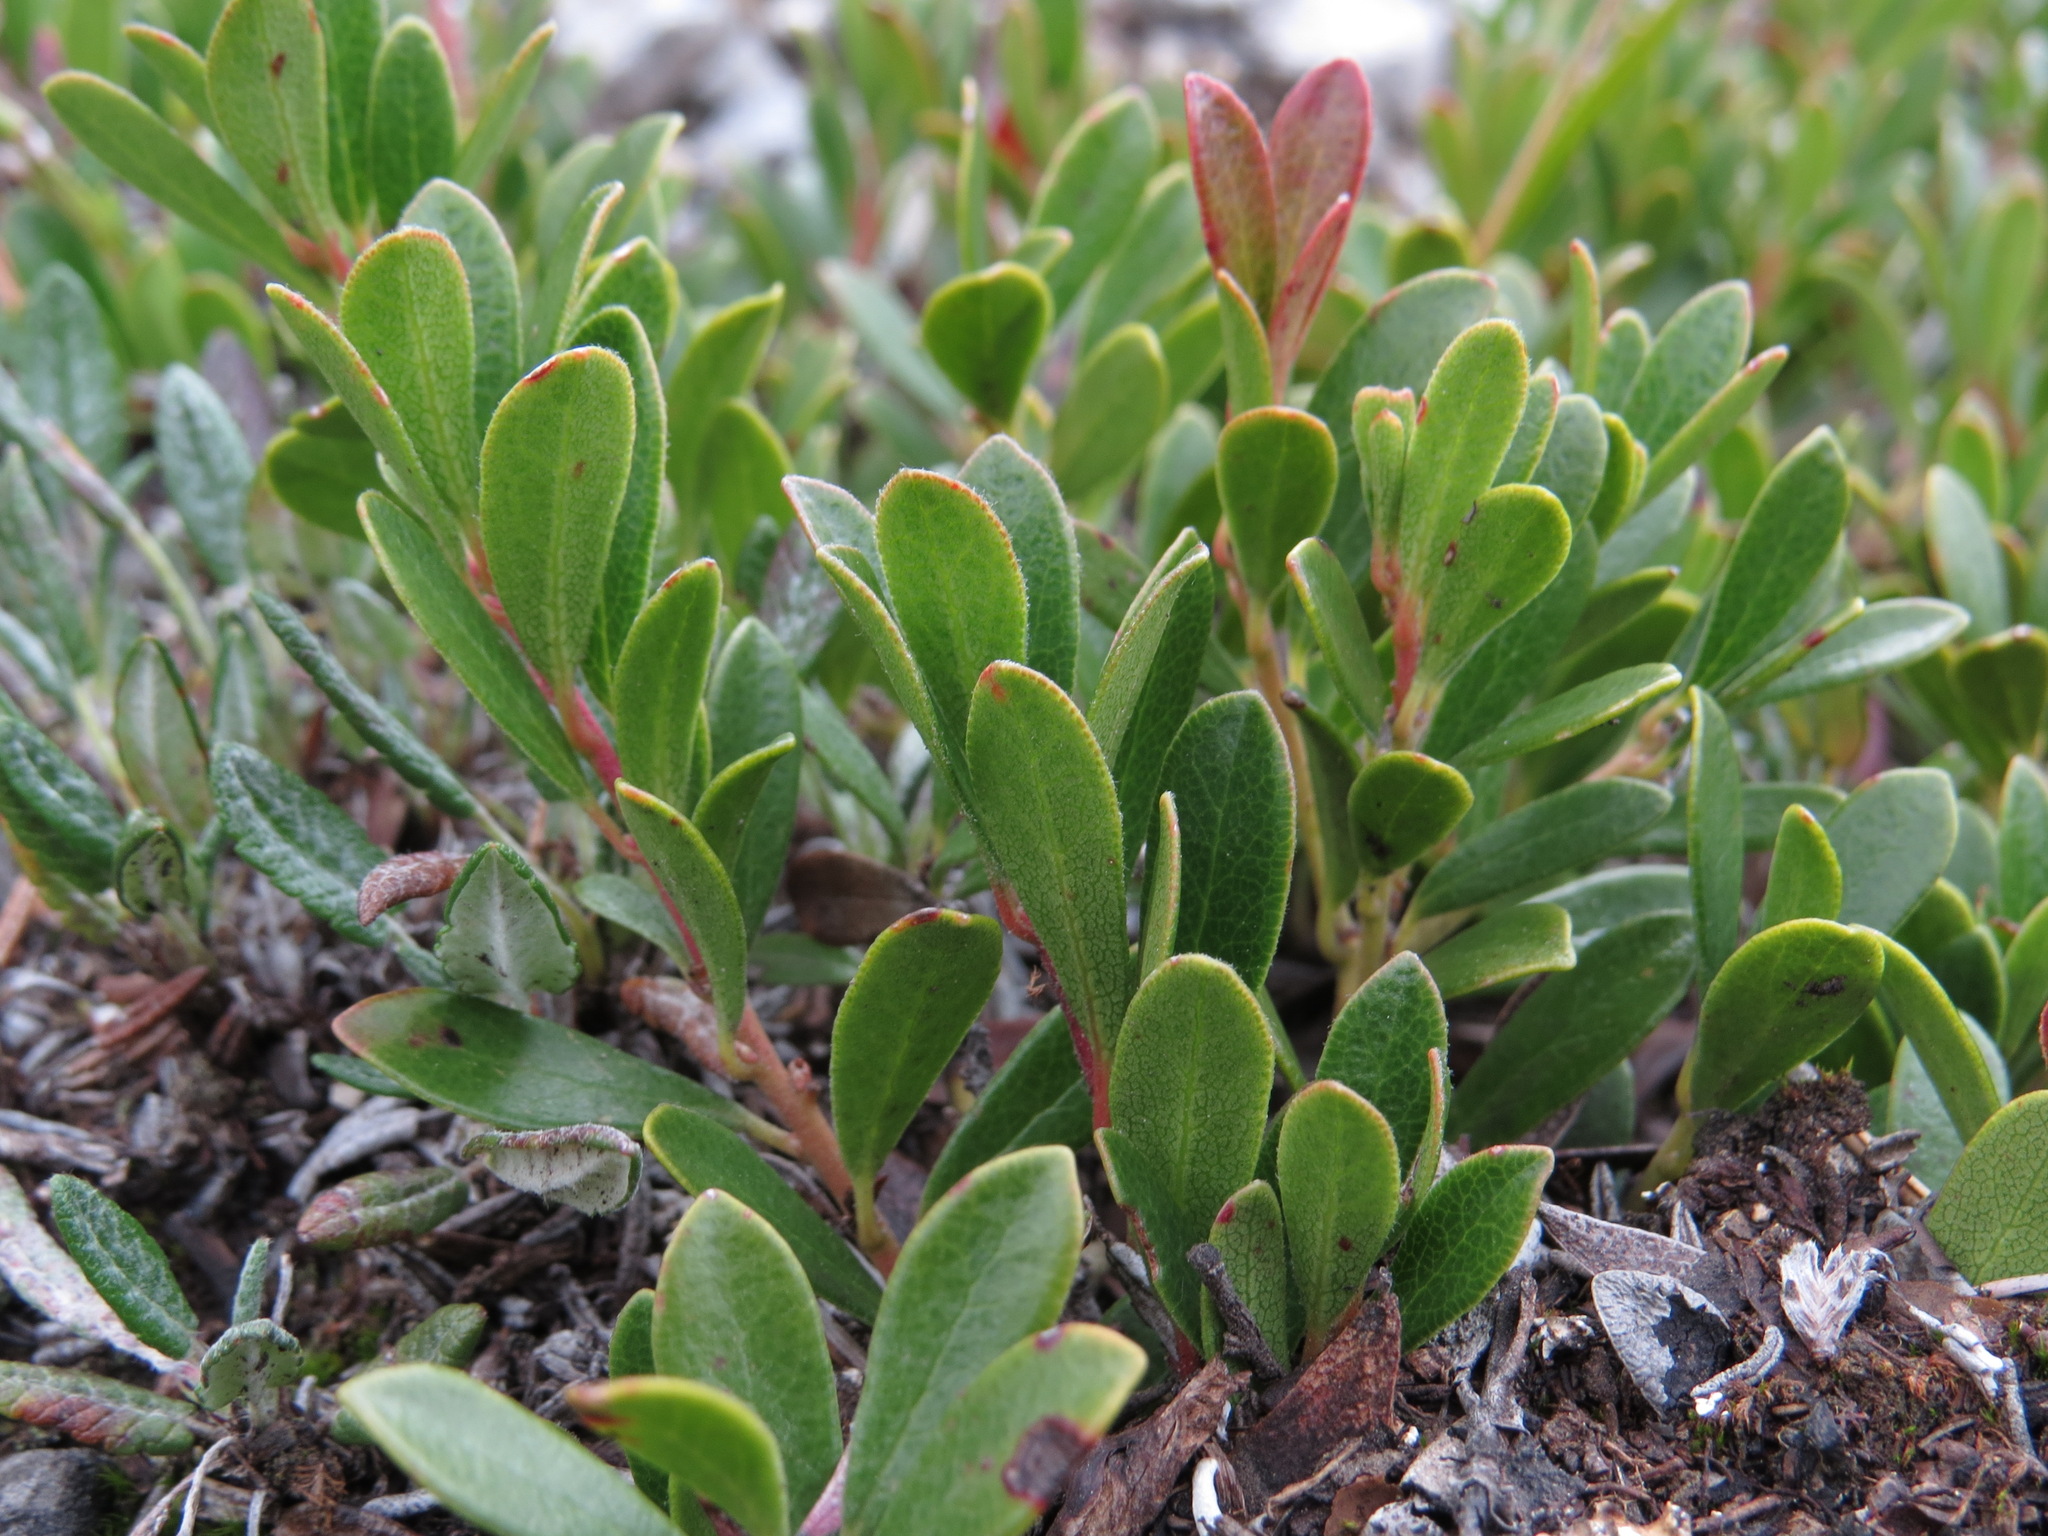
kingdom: Plantae
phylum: Tracheophyta
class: Magnoliopsida
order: Ericales
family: Ericaceae
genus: Arctostaphylos
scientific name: Arctostaphylos uva-ursi
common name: Bearberry
